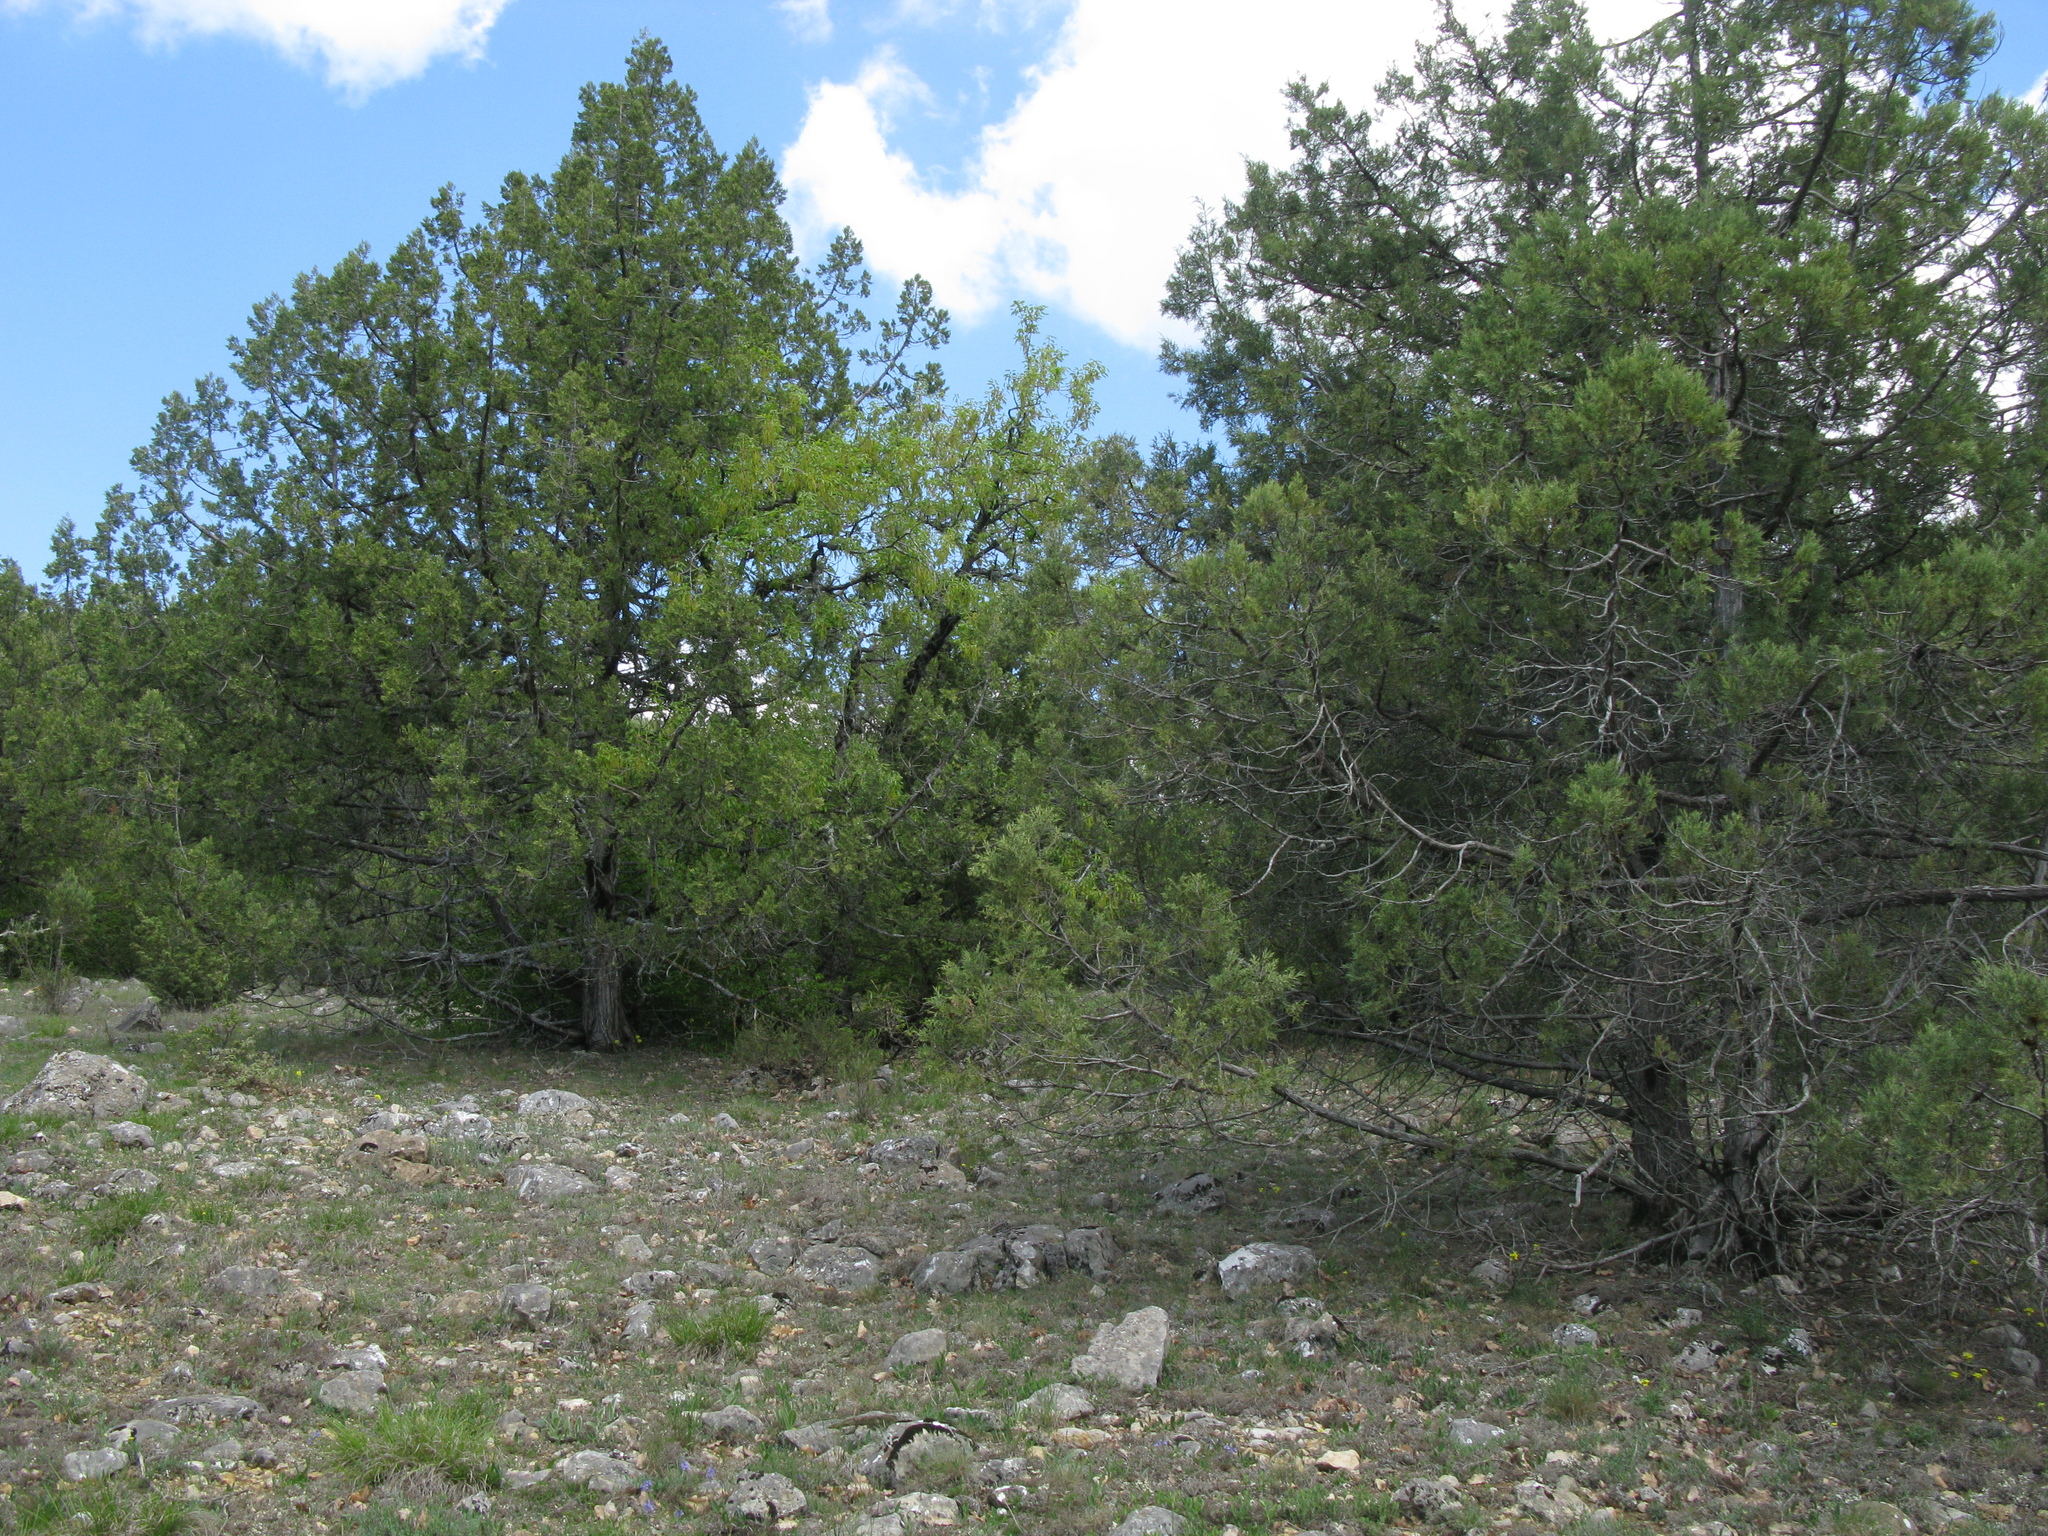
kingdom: Plantae
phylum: Tracheophyta
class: Pinopsida
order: Pinales
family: Cupressaceae
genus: Juniperus
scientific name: Juniperus excelsa
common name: Crimean juniper
